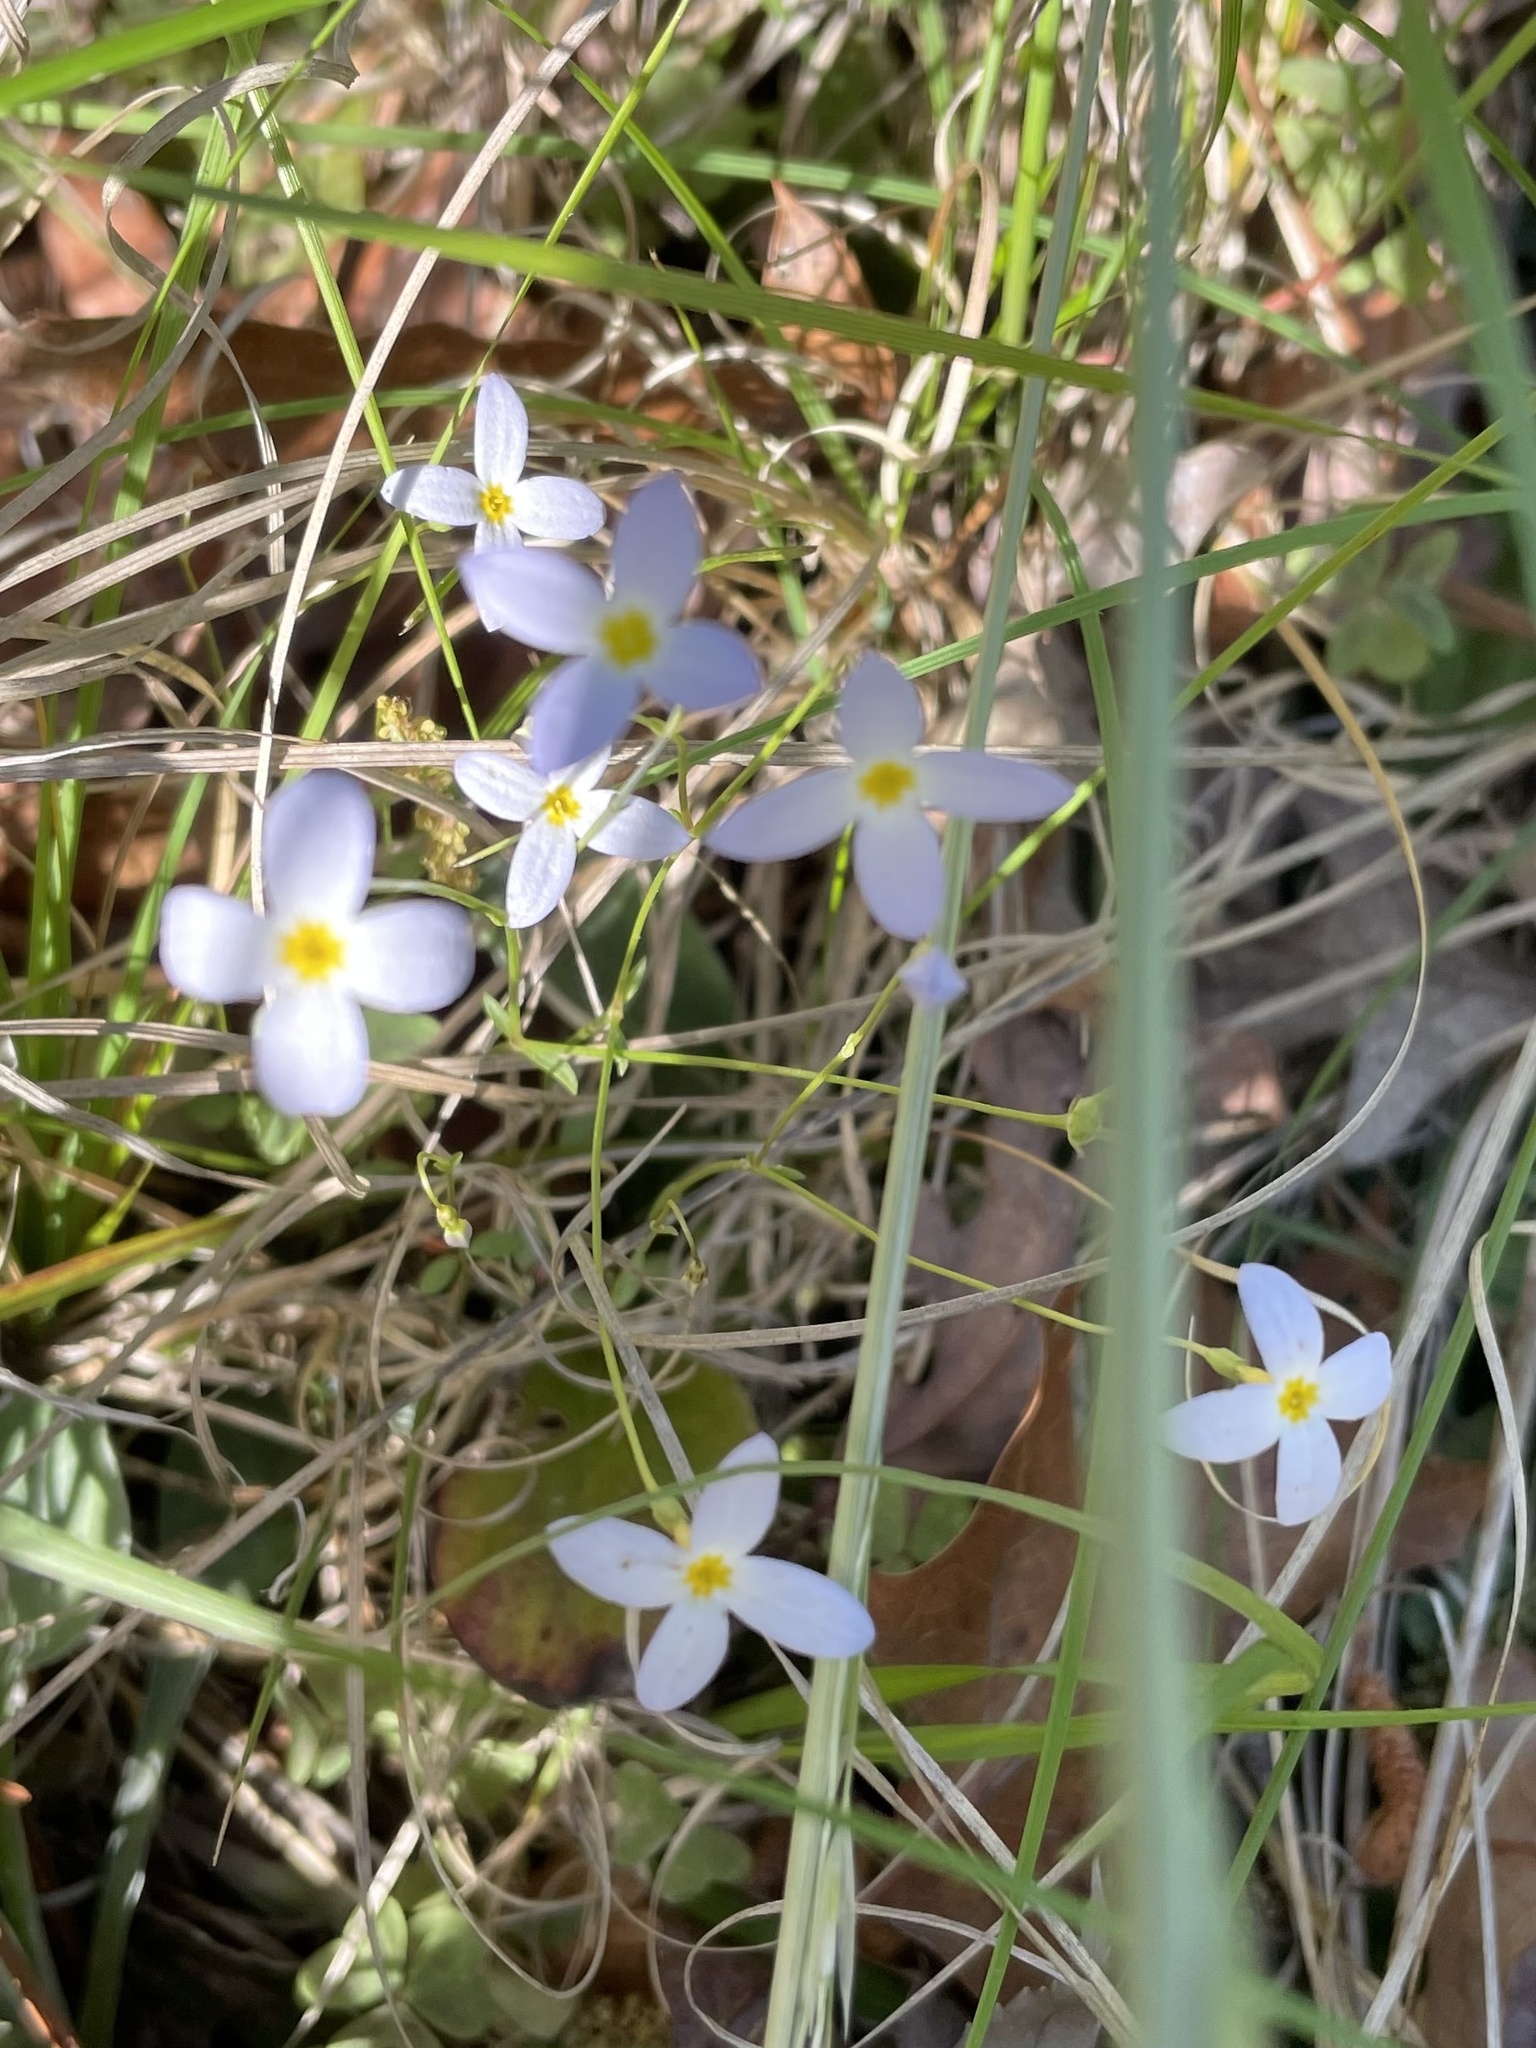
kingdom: Plantae
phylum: Tracheophyta
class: Magnoliopsida
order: Gentianales
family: Rubiaceae
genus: Houstonia
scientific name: Houstonia caerulea
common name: Bluets
